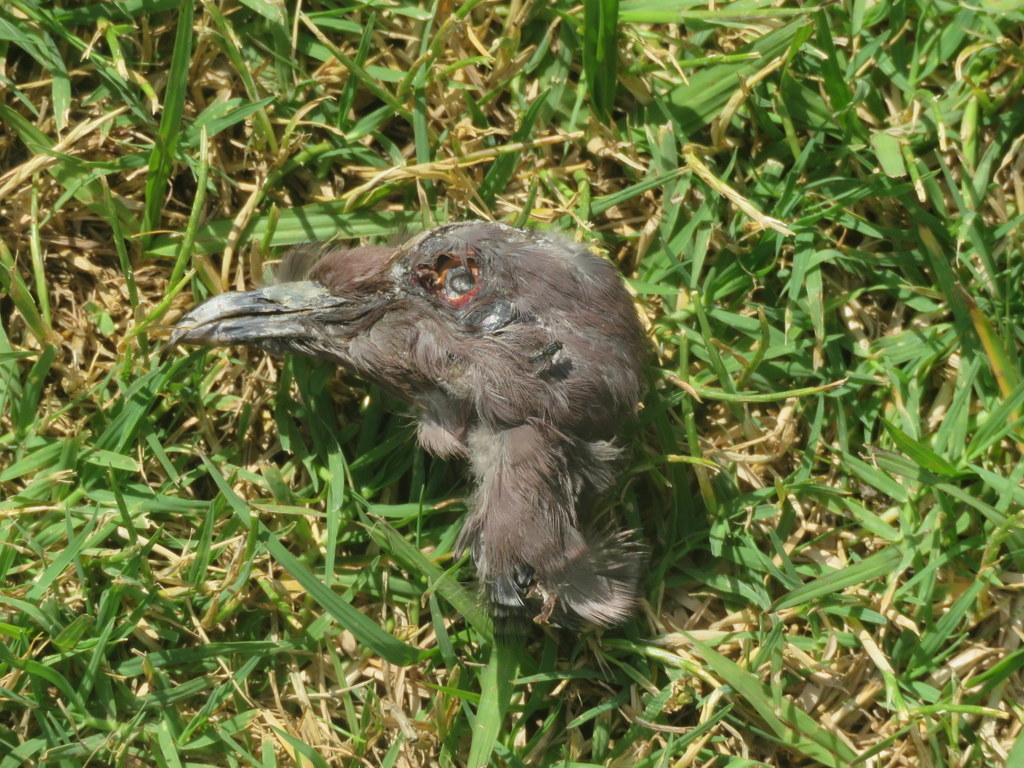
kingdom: Animalia
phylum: Chordata
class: Aves
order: Columbiformes
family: Columbidae
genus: Patagioenas
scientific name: Patagioenas picazuro
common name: Picazuro pigeon
